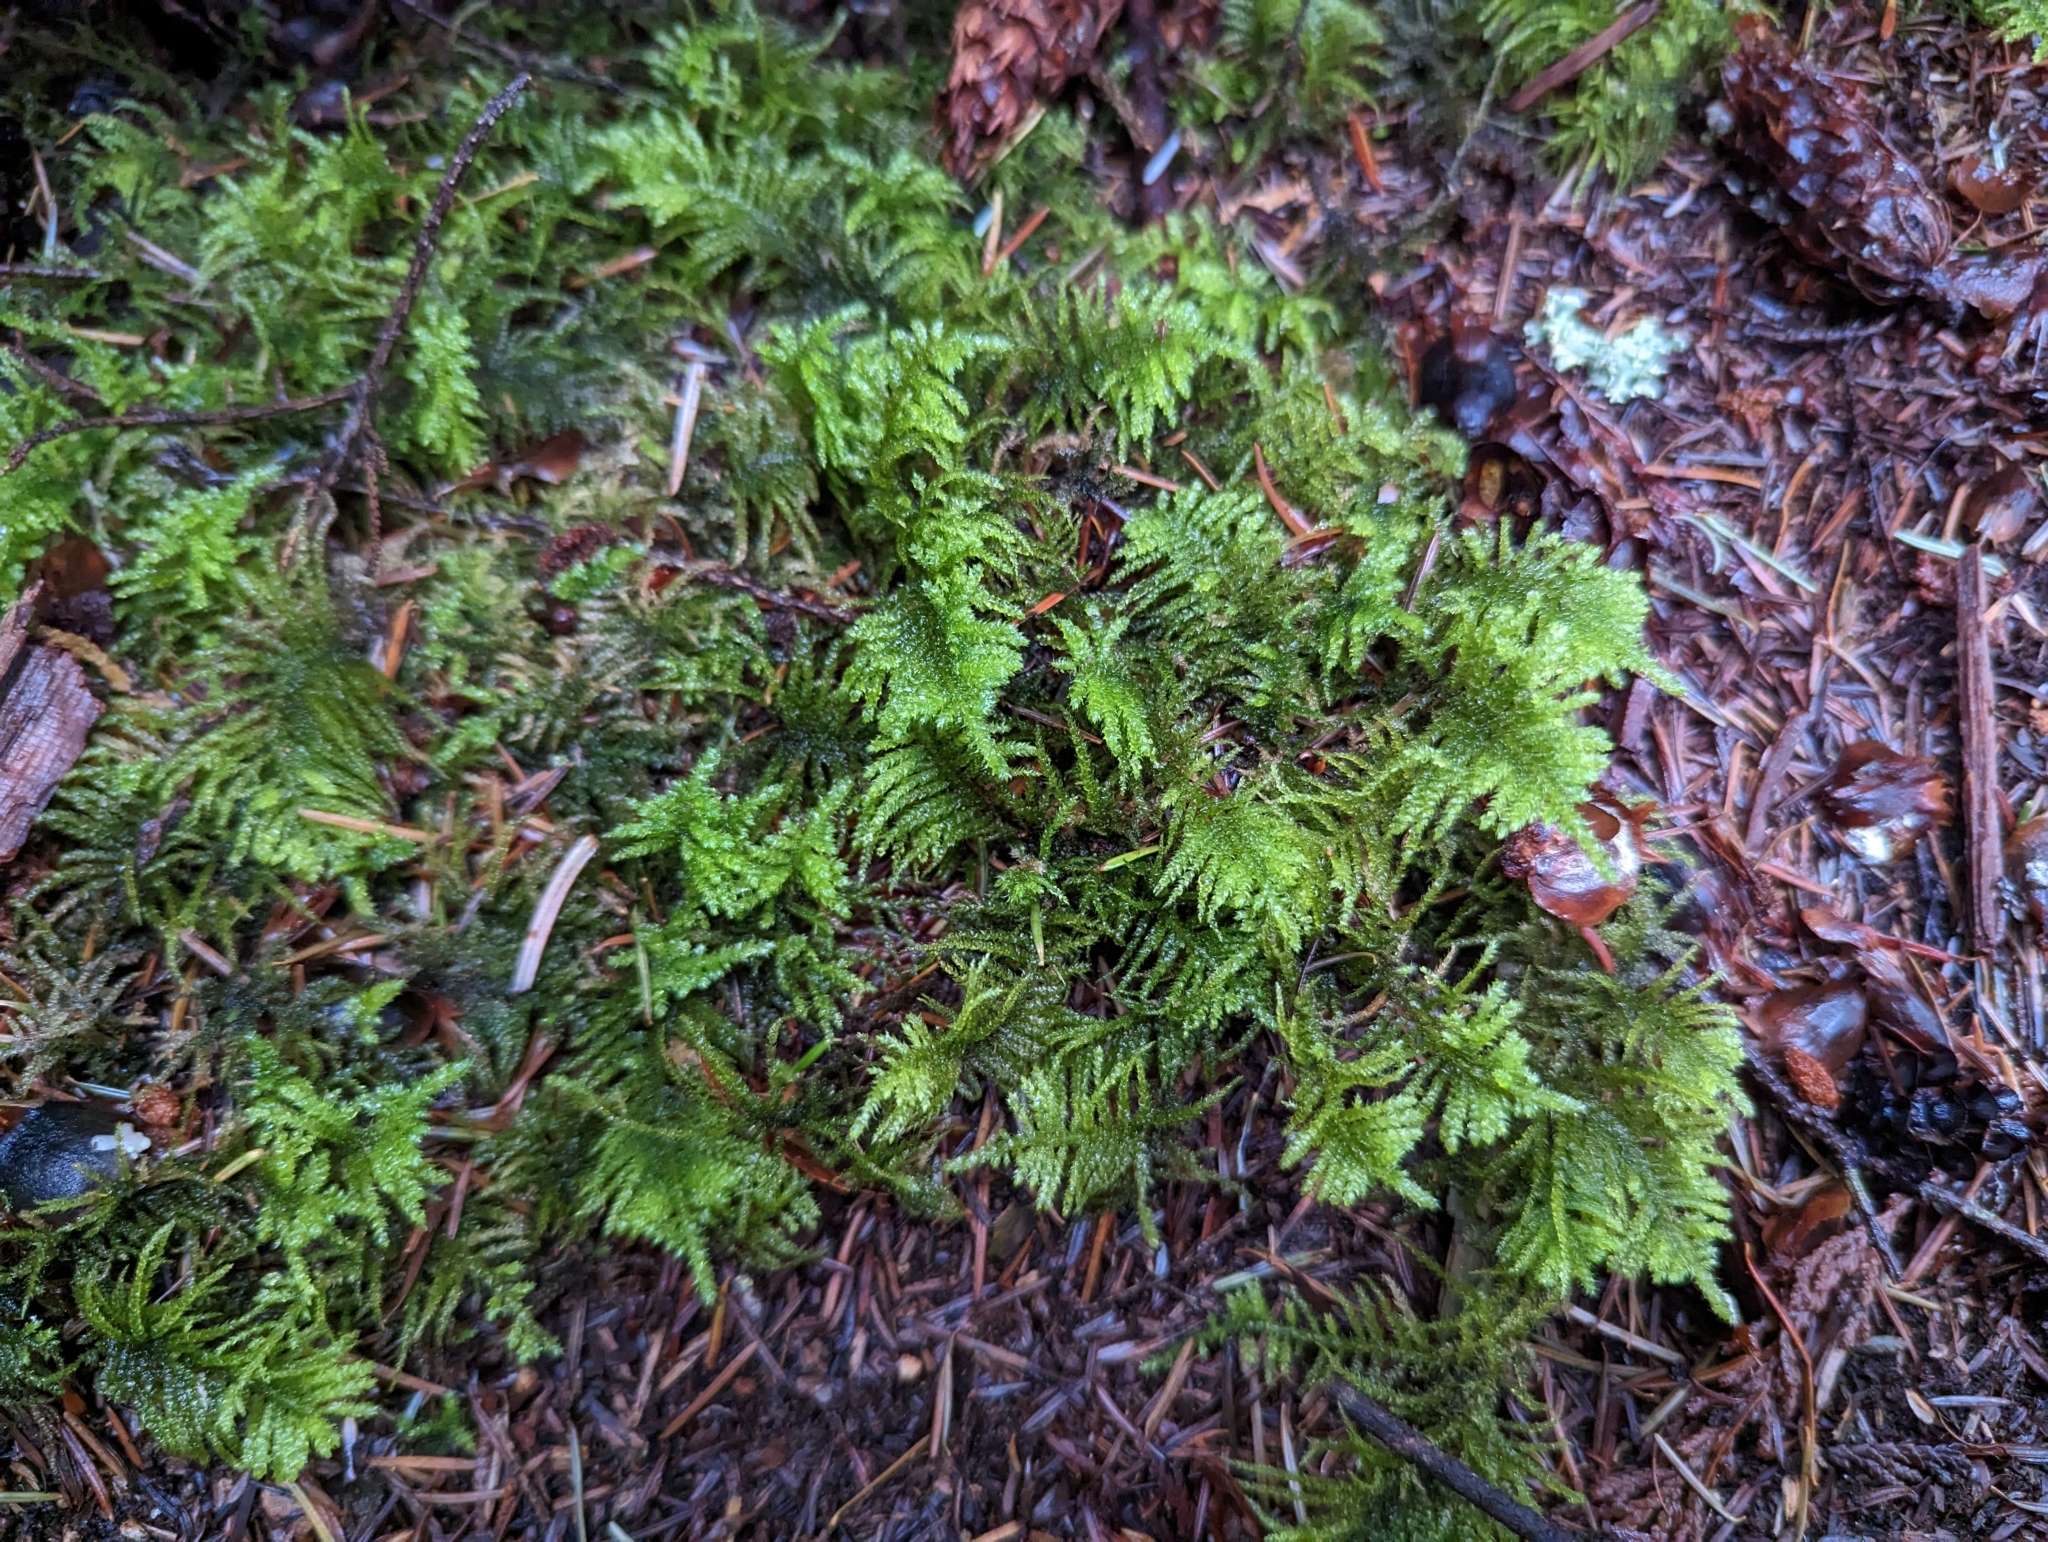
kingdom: Plantae
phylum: Bryophyta
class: Bryopsida
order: Hypnales
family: Brachytheciaceae
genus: Kindbergia
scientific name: Kindbergia oregana
